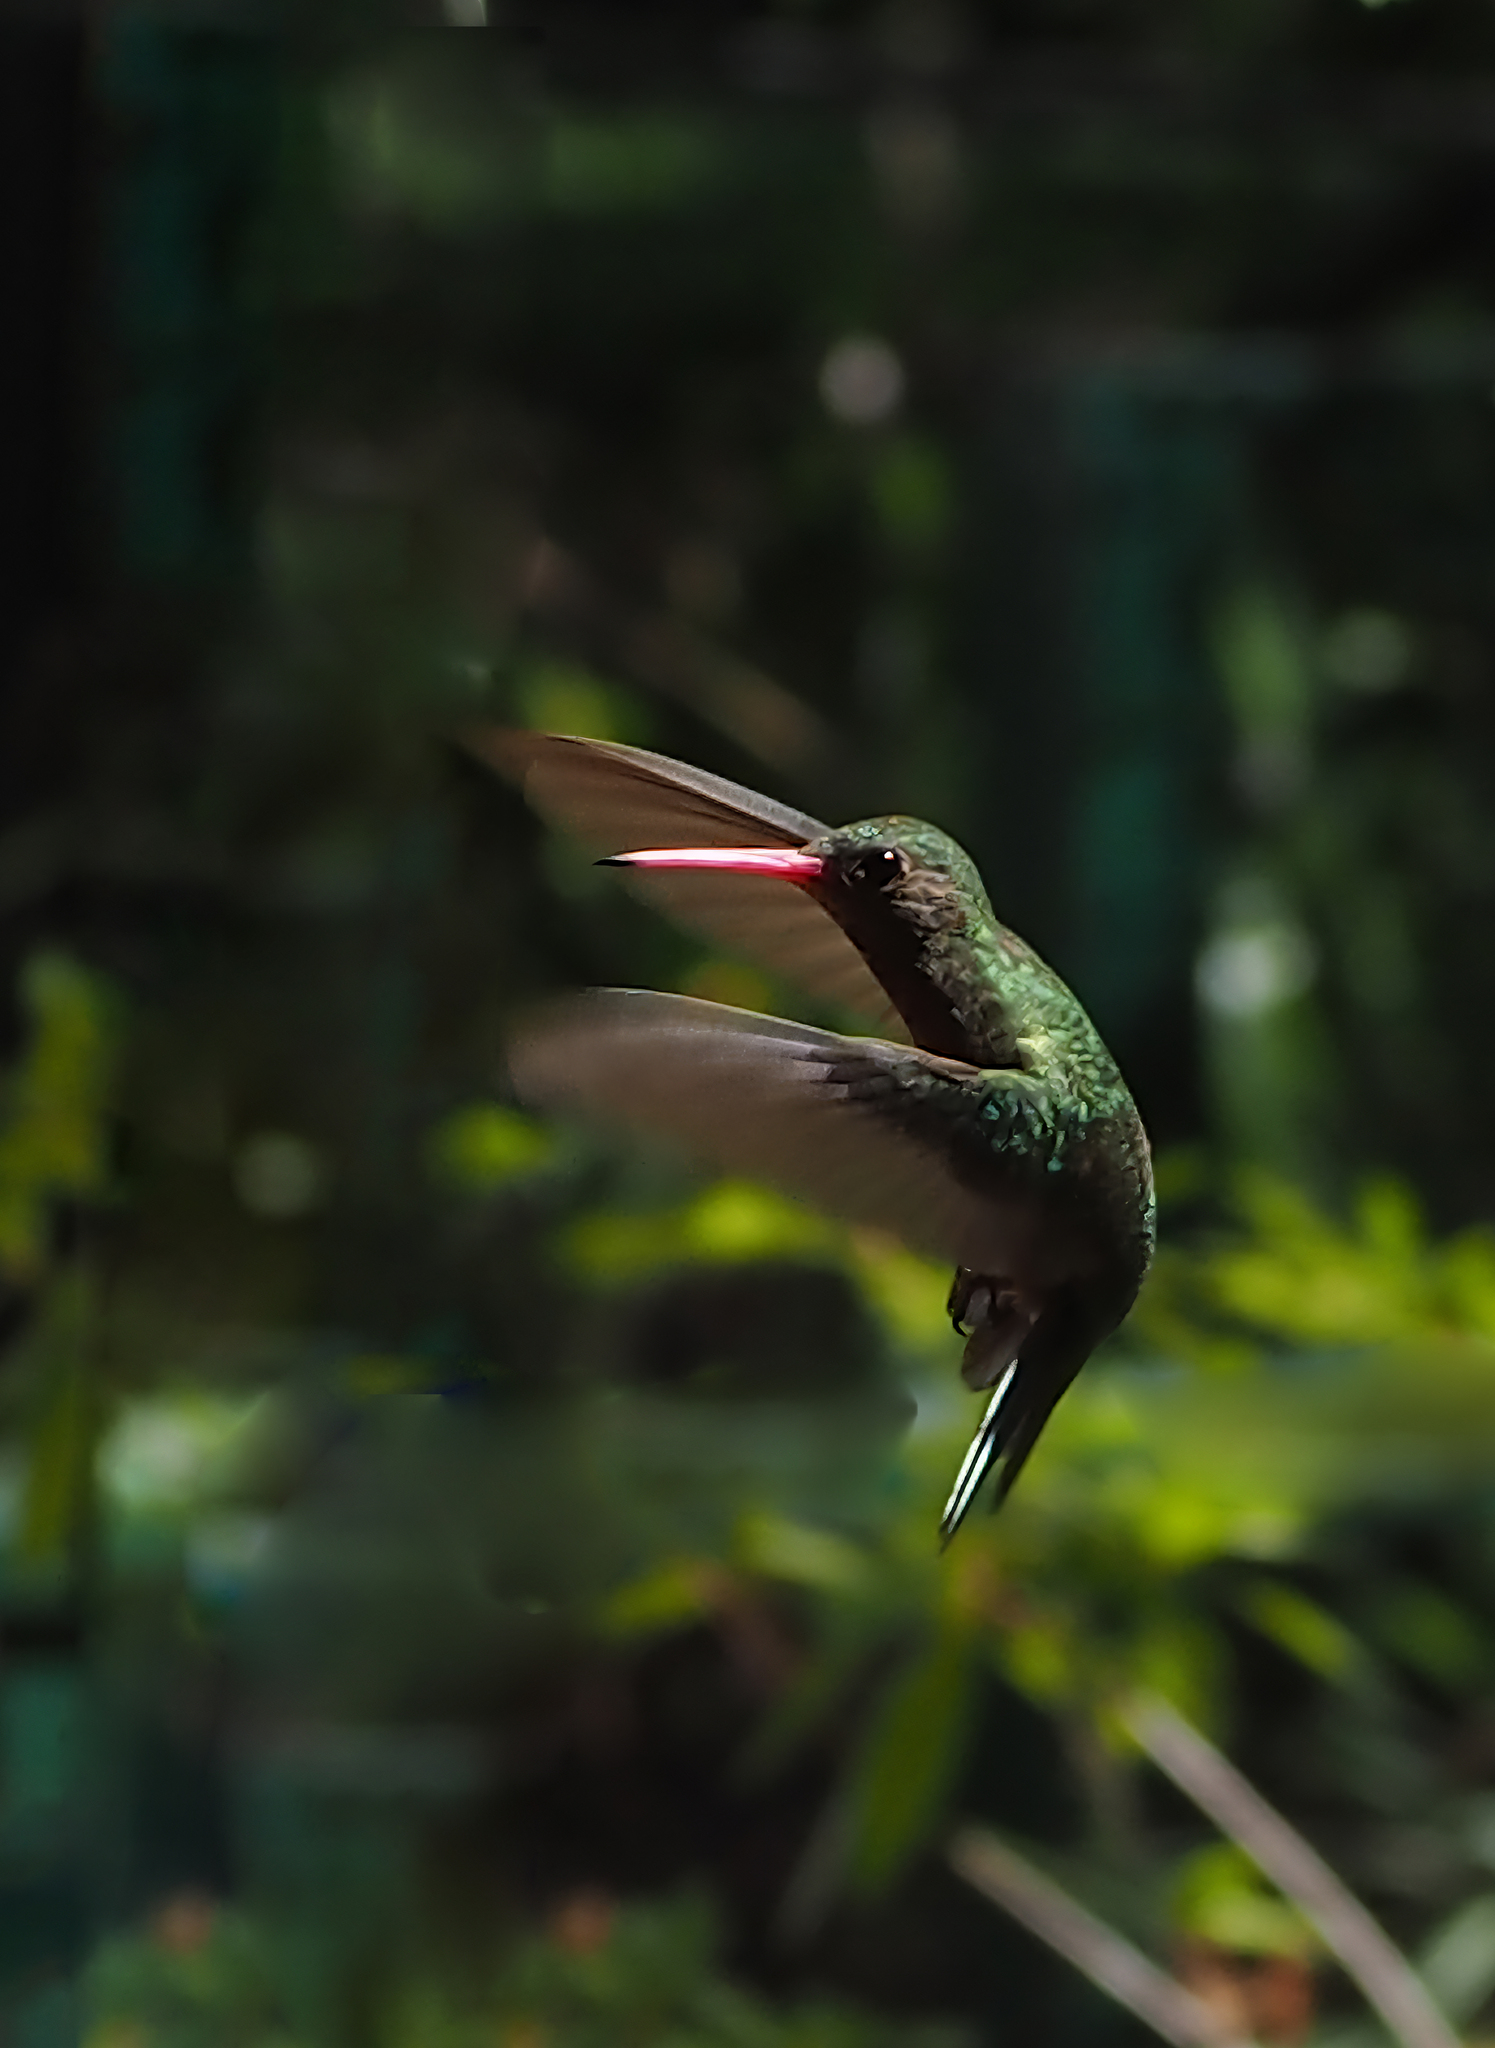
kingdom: Animalia
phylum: Chordata
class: Aves
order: Apodiformes
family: Trochilidae
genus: Chlorostilbon
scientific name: Chlorostilbon lucidus
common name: Glittering-bellied emerald
